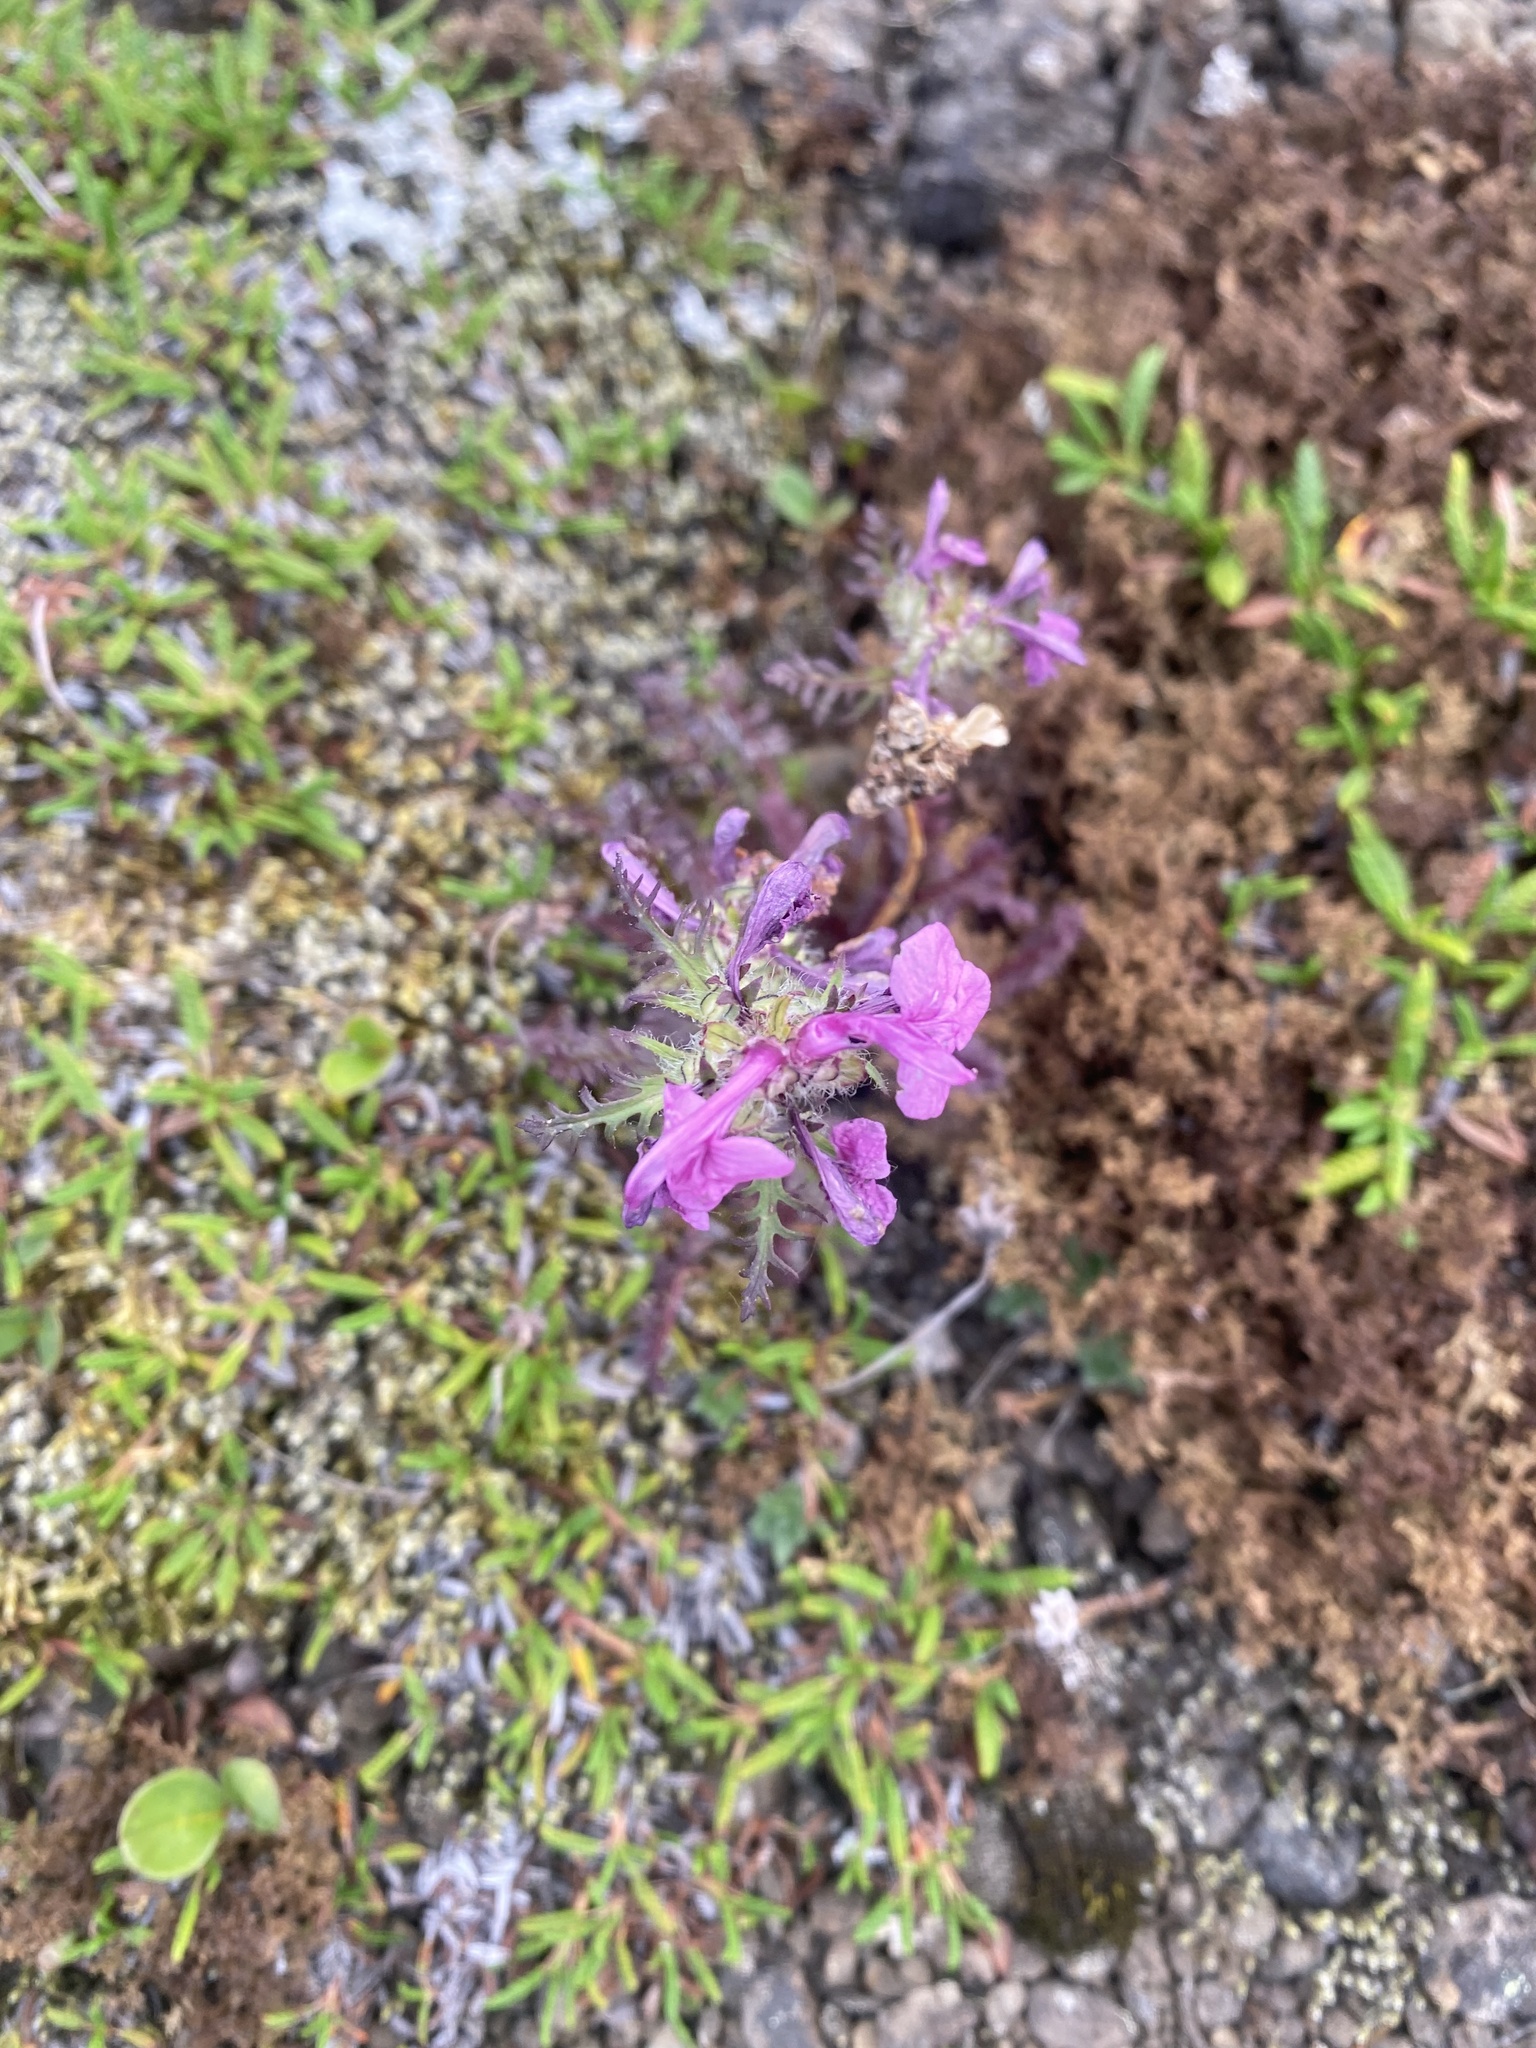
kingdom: Plantae
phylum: Tracheophyta
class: Magnoliopsida
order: Lamiales
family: Orobanchaceae
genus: Pedicularis
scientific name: Pedicularis amoena
